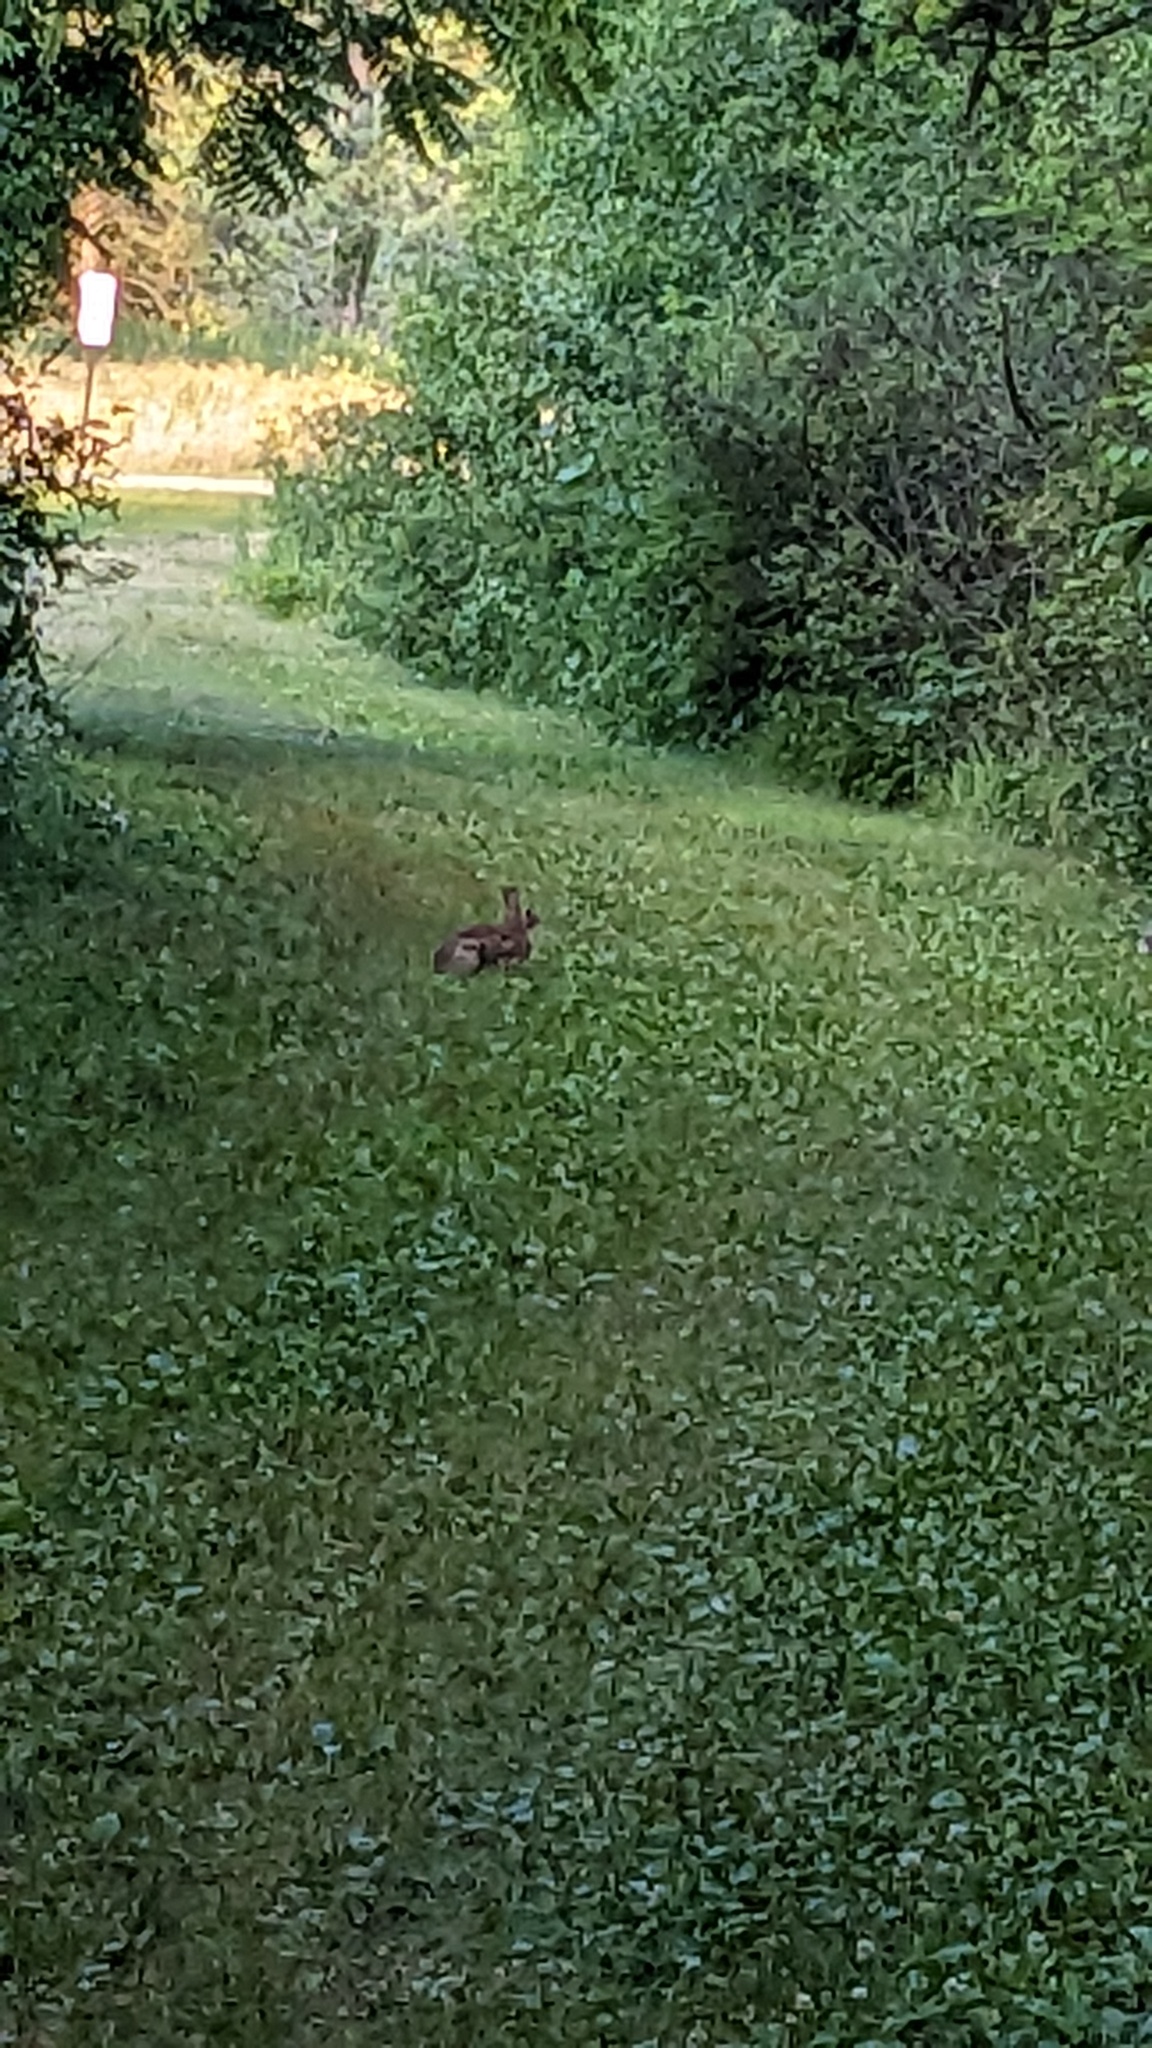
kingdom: Animalia
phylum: Chordata
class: Mammalia
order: Lagomorpha
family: Leporidae
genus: Sylvilagus
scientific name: Sylvilagus floridanus
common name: Eastern cottontail
